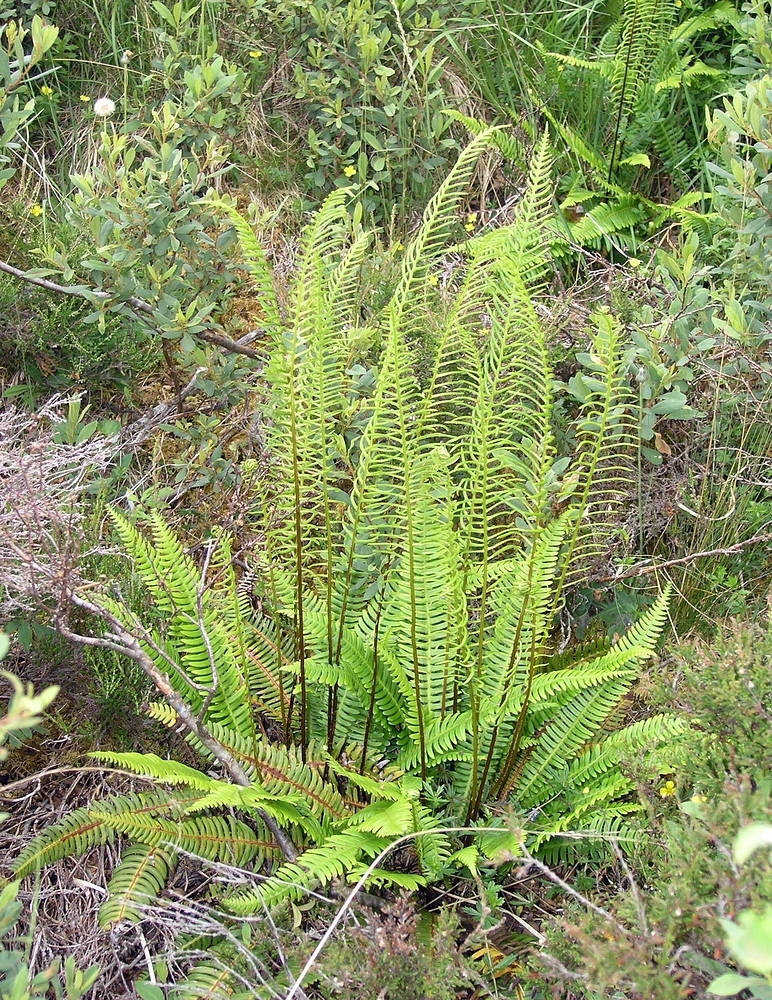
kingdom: Plantae
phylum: Tracheophyta
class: Polypodiopsida
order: Polypodiales
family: Blechnaceae
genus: Struthiopteris
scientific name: Struthiopteris spicant
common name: Deer fern
